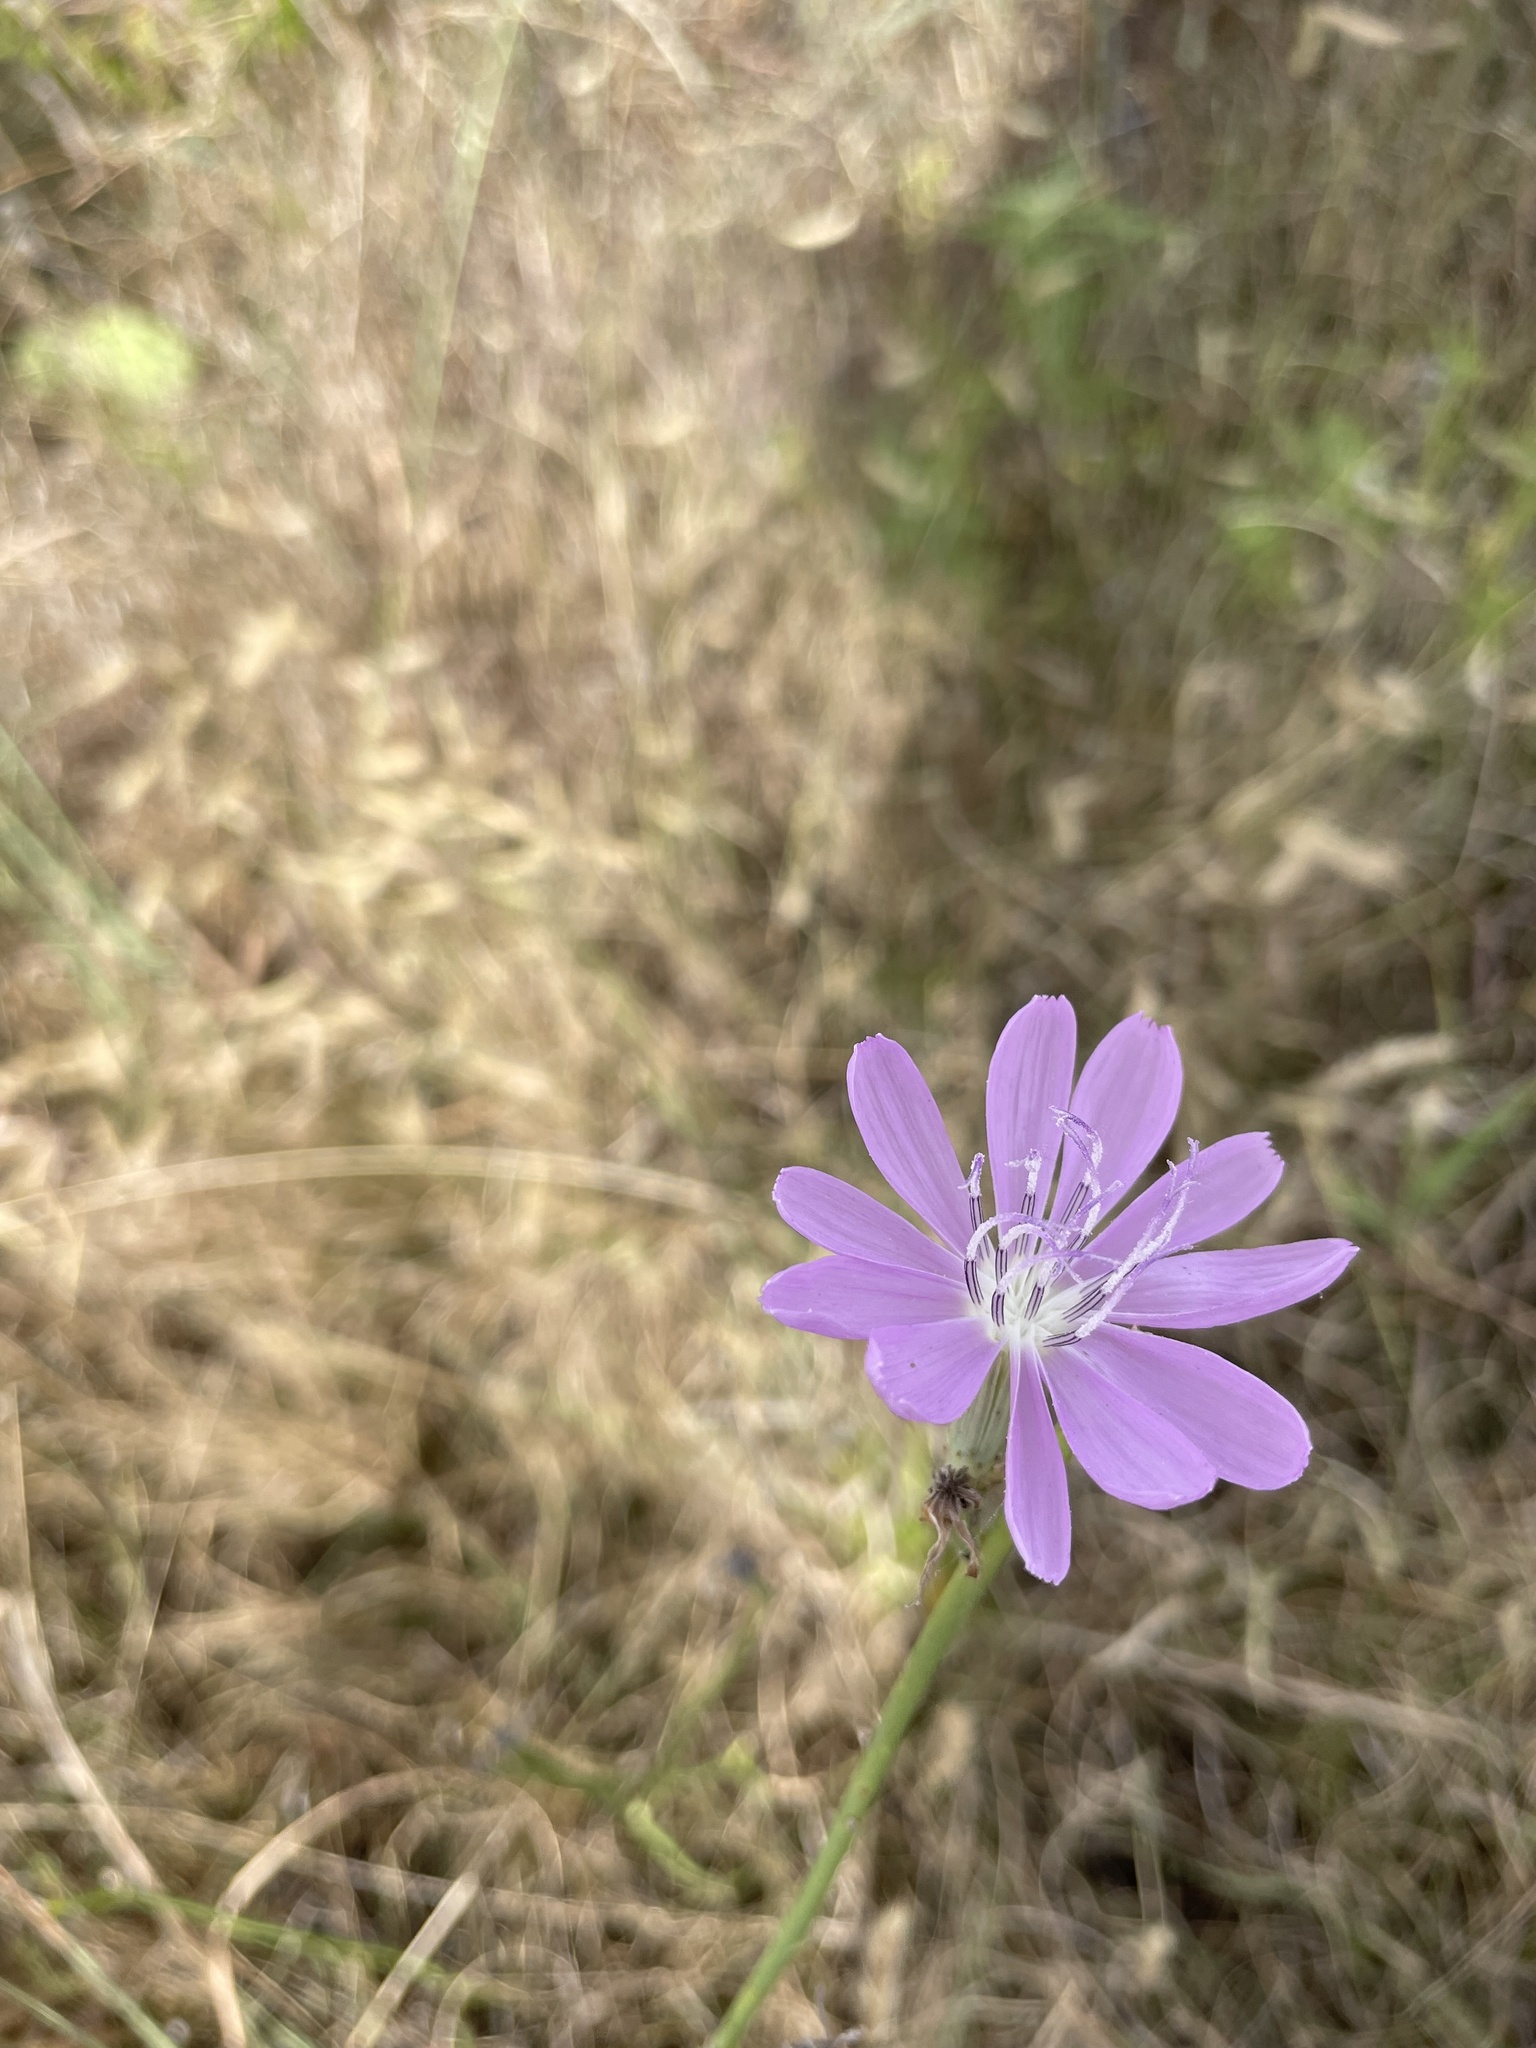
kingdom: Plantae
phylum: Tracheophyta
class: Magnoliopsida
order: Asterales
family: Asteraceae
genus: Lygodesmia
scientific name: Lygodesmia texana
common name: Texas skeleton-plant
